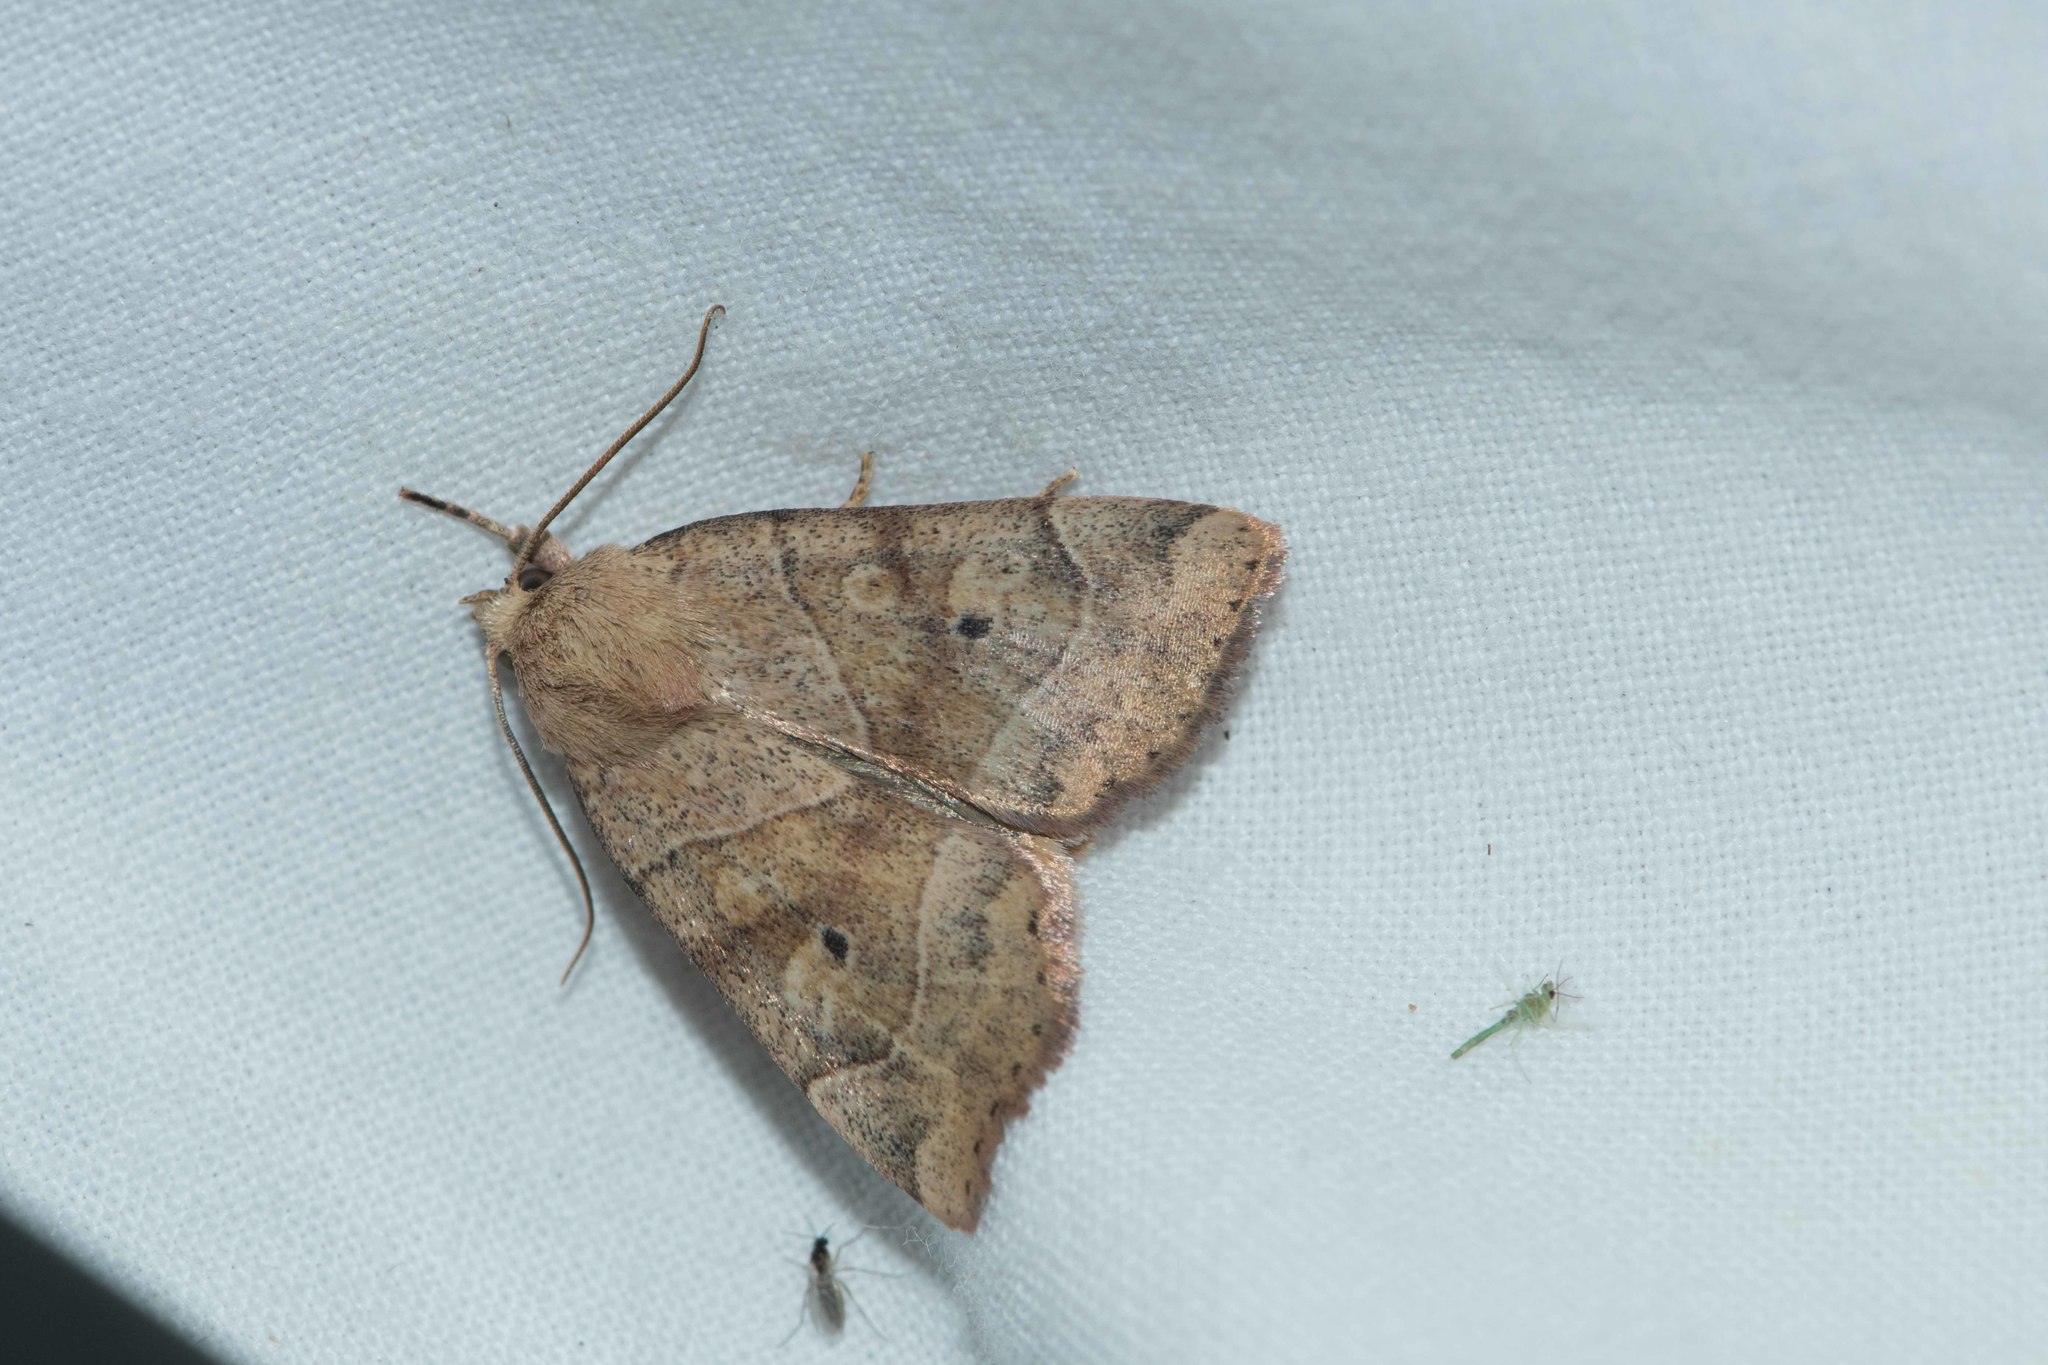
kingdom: Animalia
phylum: Arthropoda
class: Insecta
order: Lepidoptera
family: Noctuidae
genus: Cosmia
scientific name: Cosmia trapezina
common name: Dun-bar
